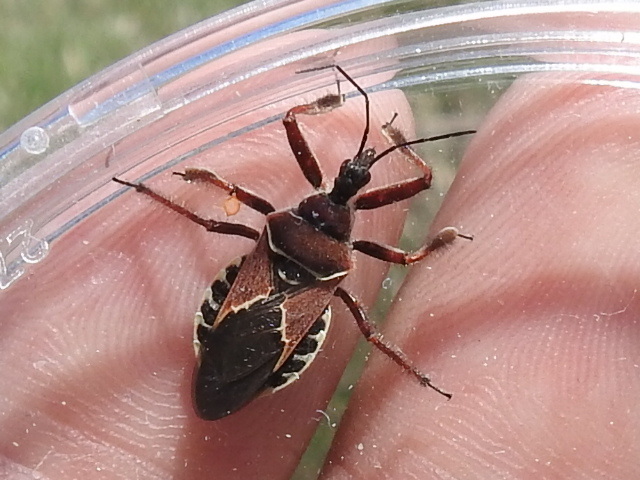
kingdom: Animalia
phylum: Arthropoda
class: Insecta
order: Hemiptera
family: Reduviidae
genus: Apiomerus
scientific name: Apiomerus spissipes
